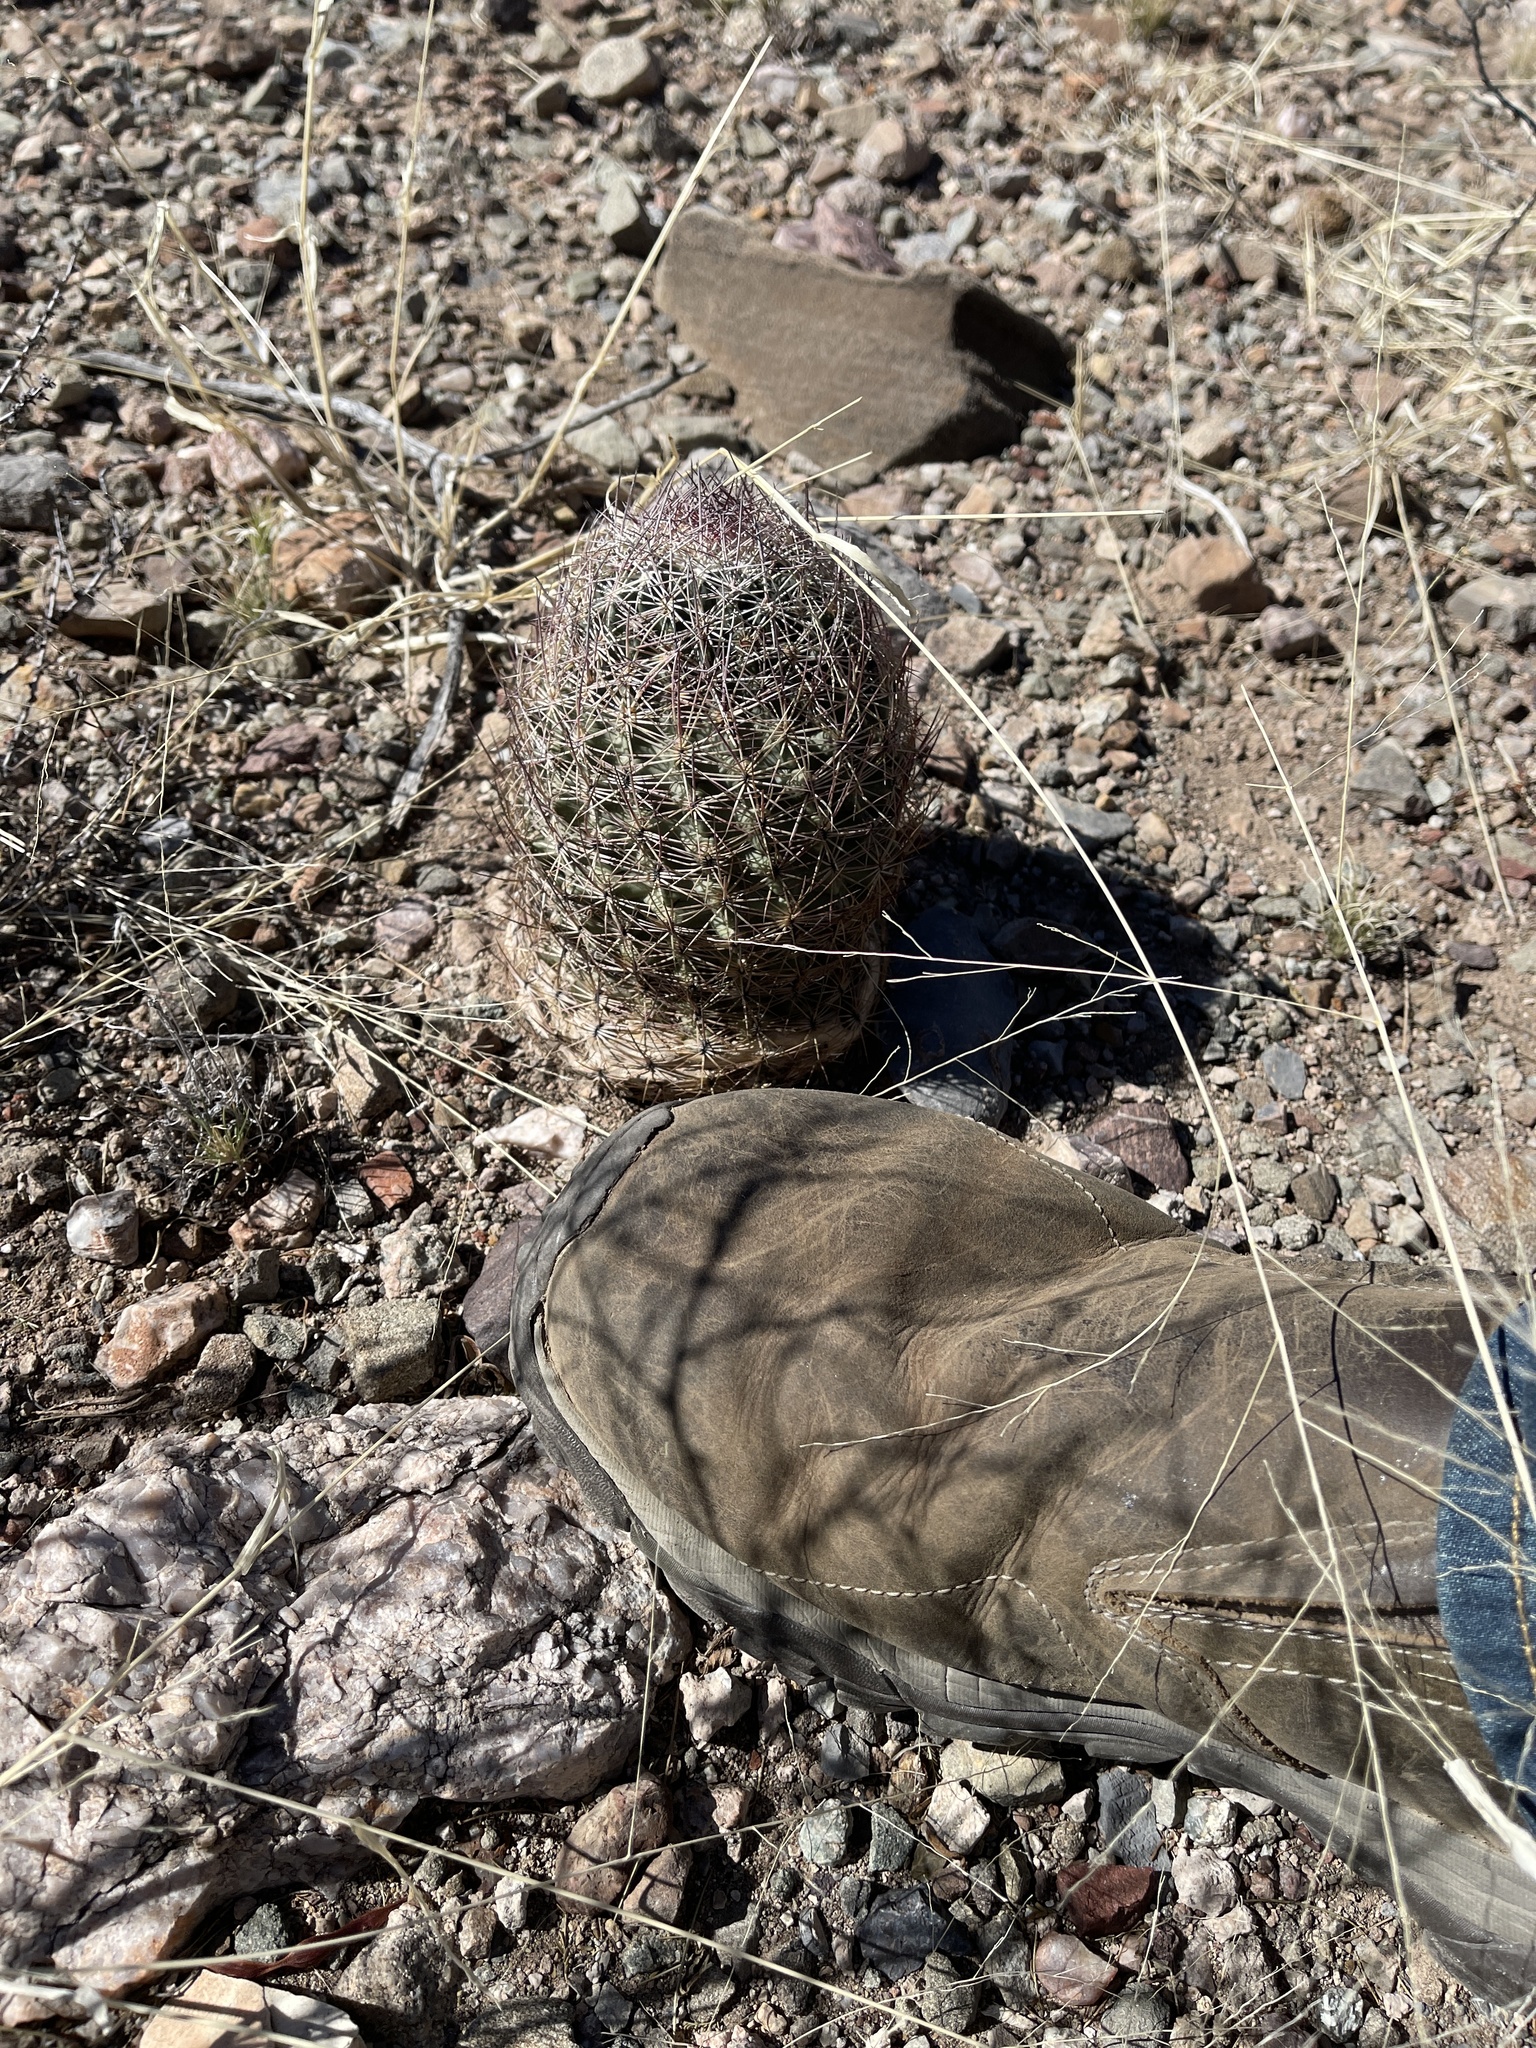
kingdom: Plantae
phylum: Tracheophyta
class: Magnoliopsida
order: Caryophyllales
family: Cactaceae
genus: Sclerocactus
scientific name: Sclerocactus johnsonii
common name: Eight-spine fishhook cactus
